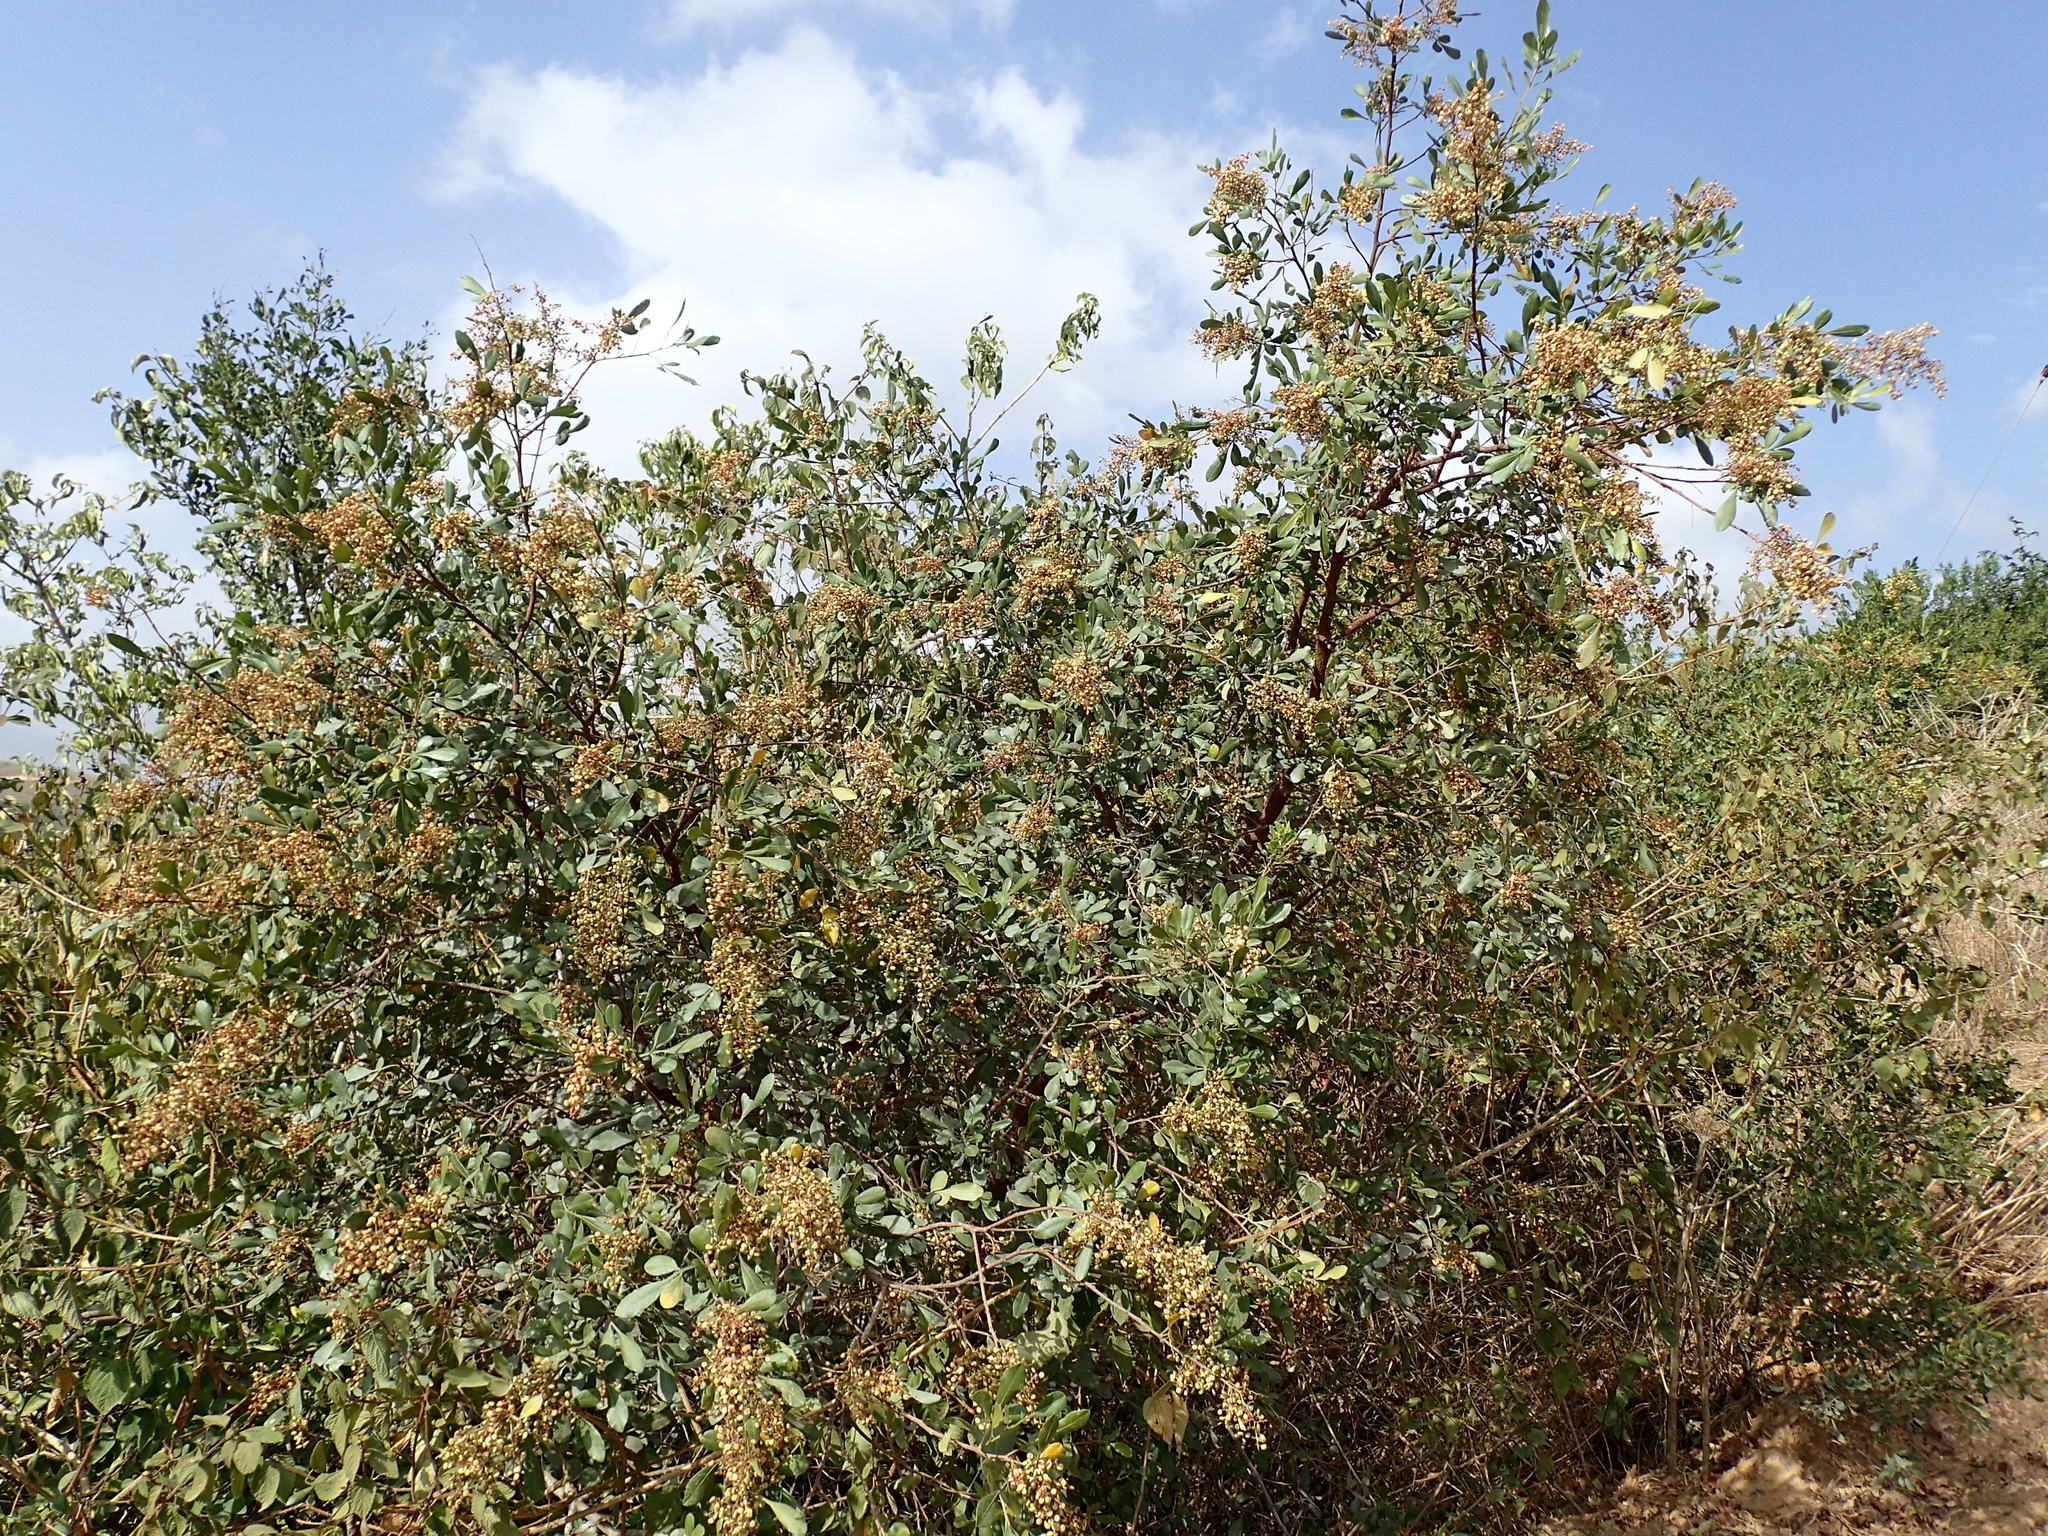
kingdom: Plantae
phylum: Tracheophyta
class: Magnoliopsida
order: Sapindales
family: Anacardiaceae
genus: Searsia
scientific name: Searsia pallens
